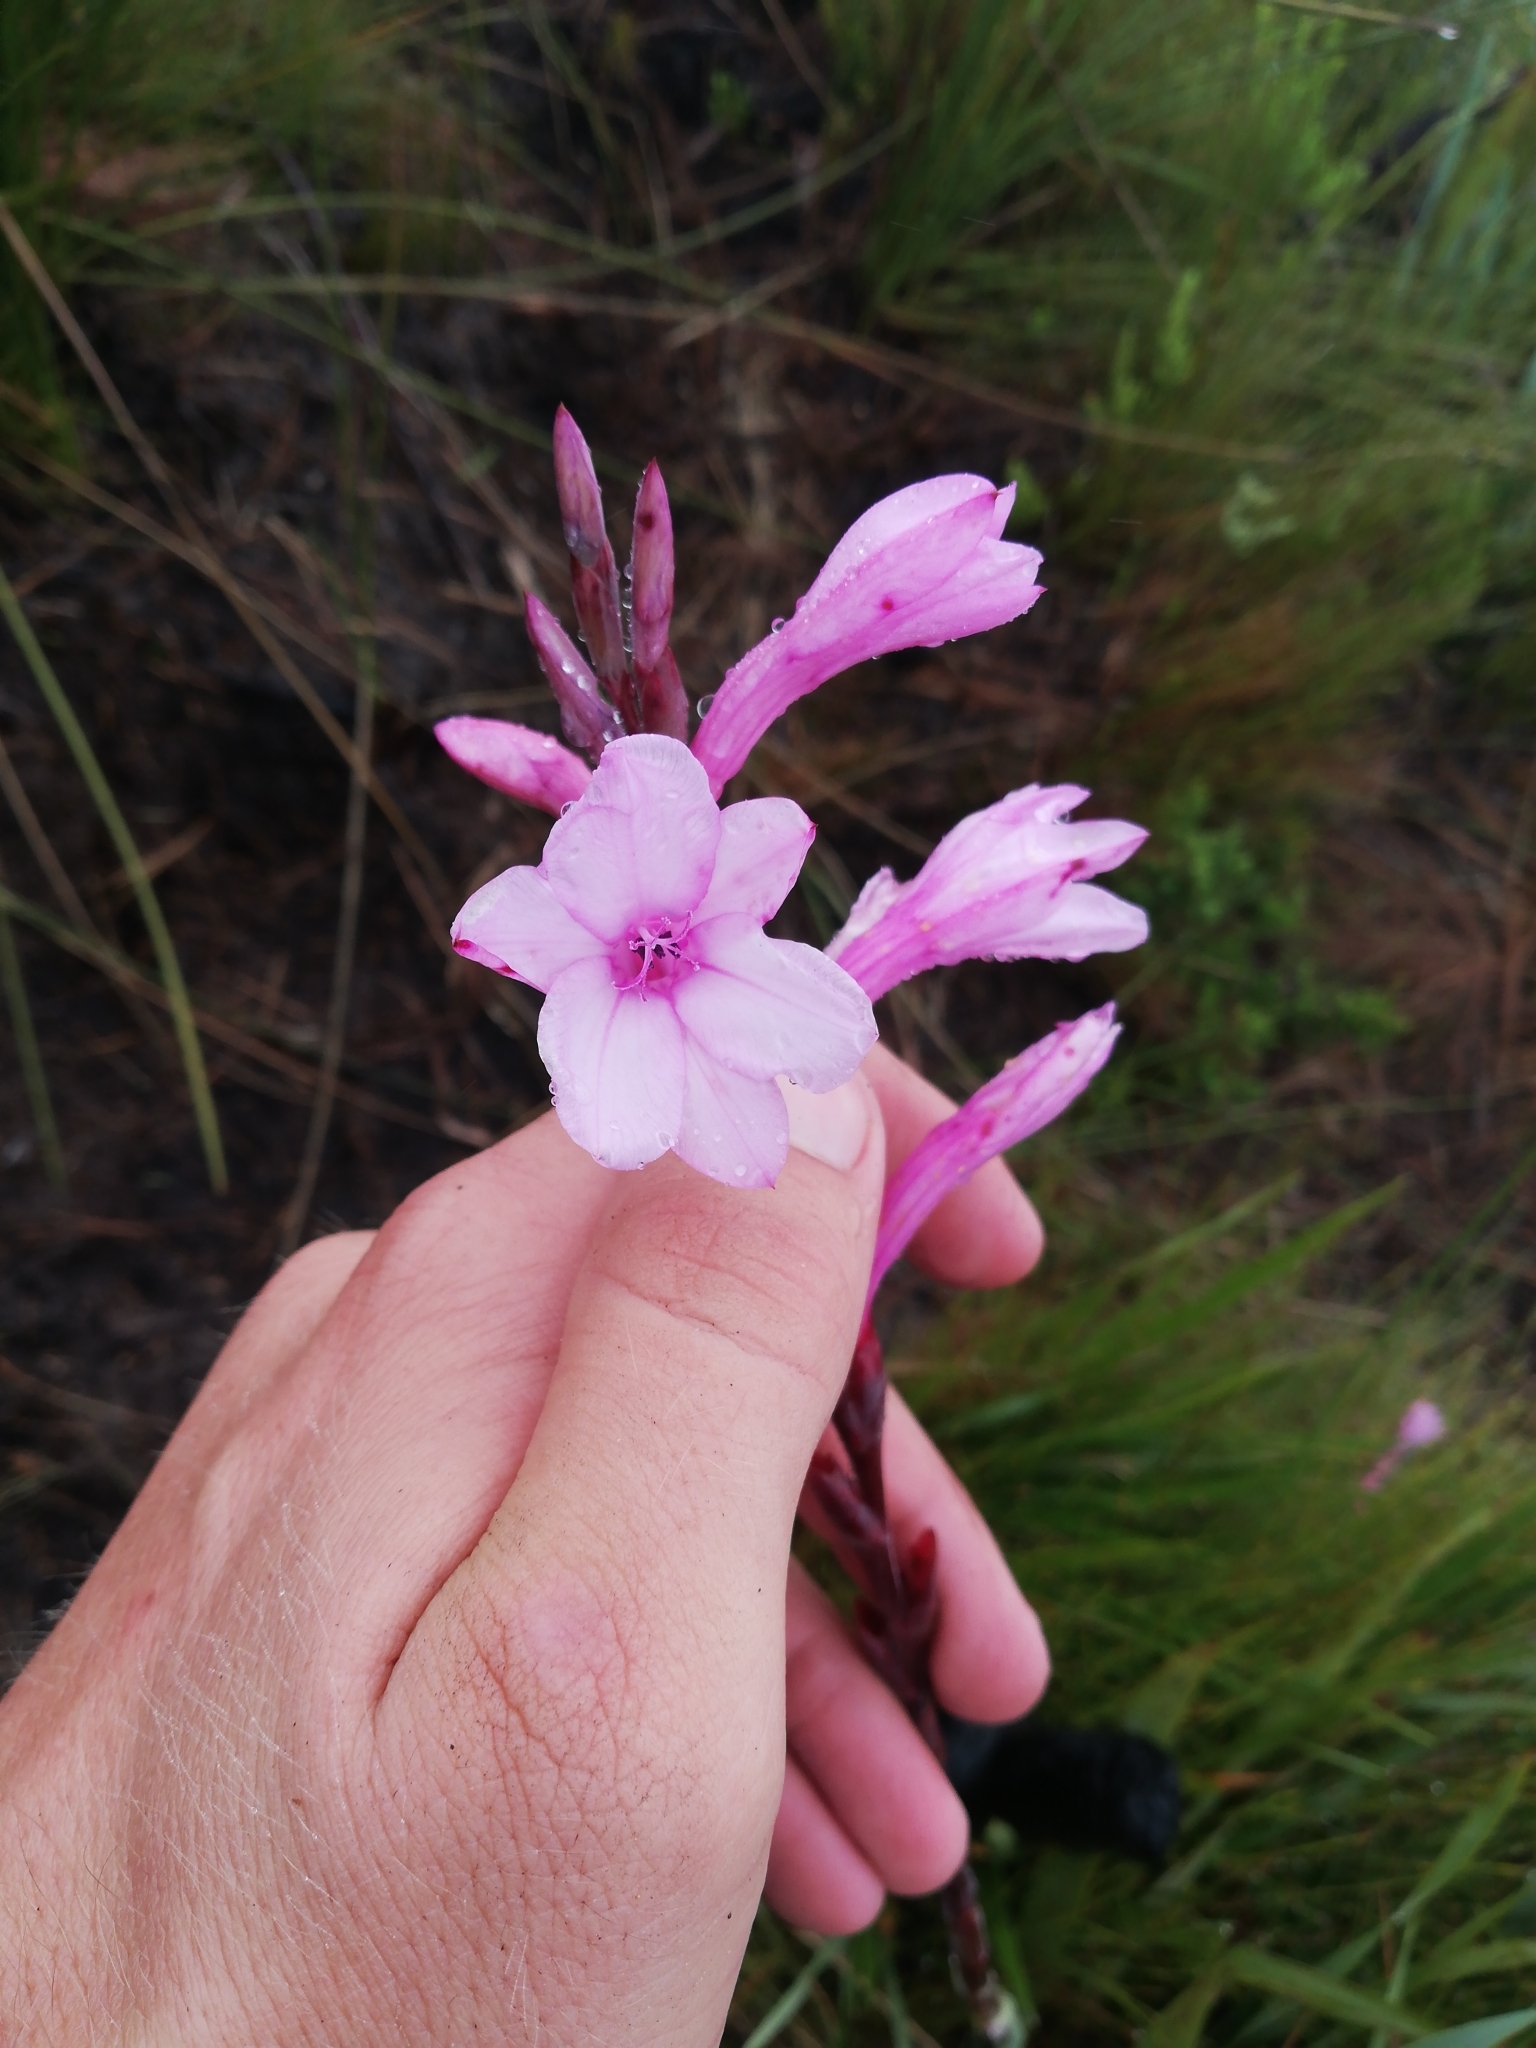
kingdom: Plantae
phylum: Tracheophyta
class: Liliopsida
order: Asparagales
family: Iridaceae
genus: Watsonia
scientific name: Watsonia knysnana
